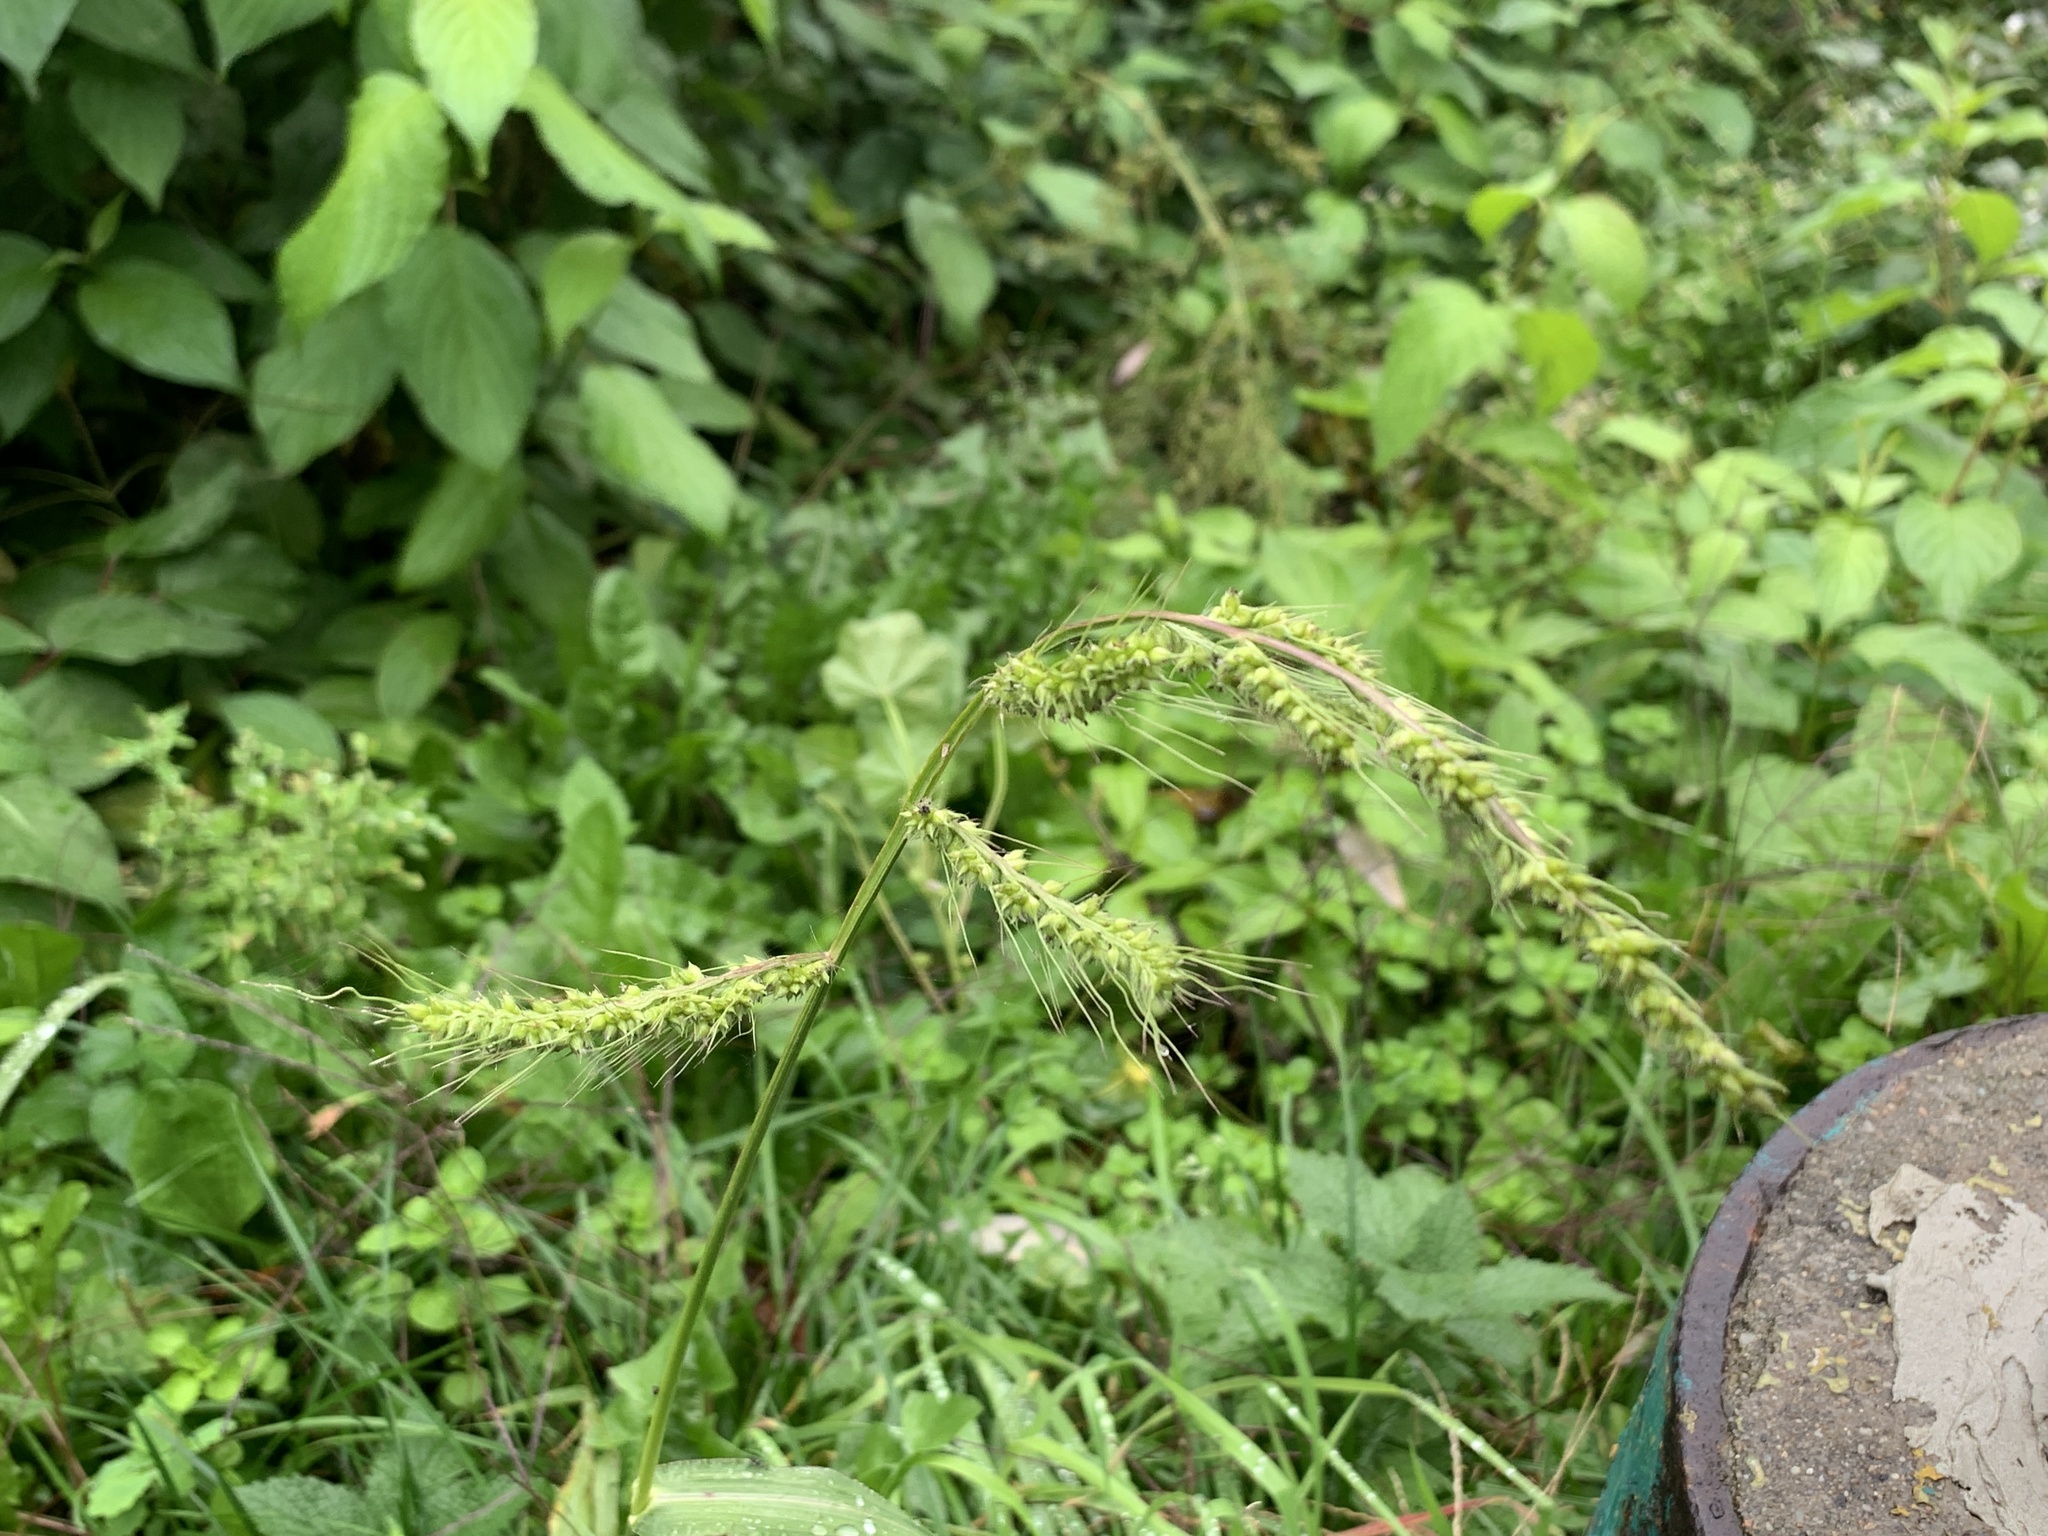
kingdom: Plantae
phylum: Tracheophyta
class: Liliopsida
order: Poales
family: Poaceae
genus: Echinochloa
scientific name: Echinochloa crus-galli
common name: Cockspur
